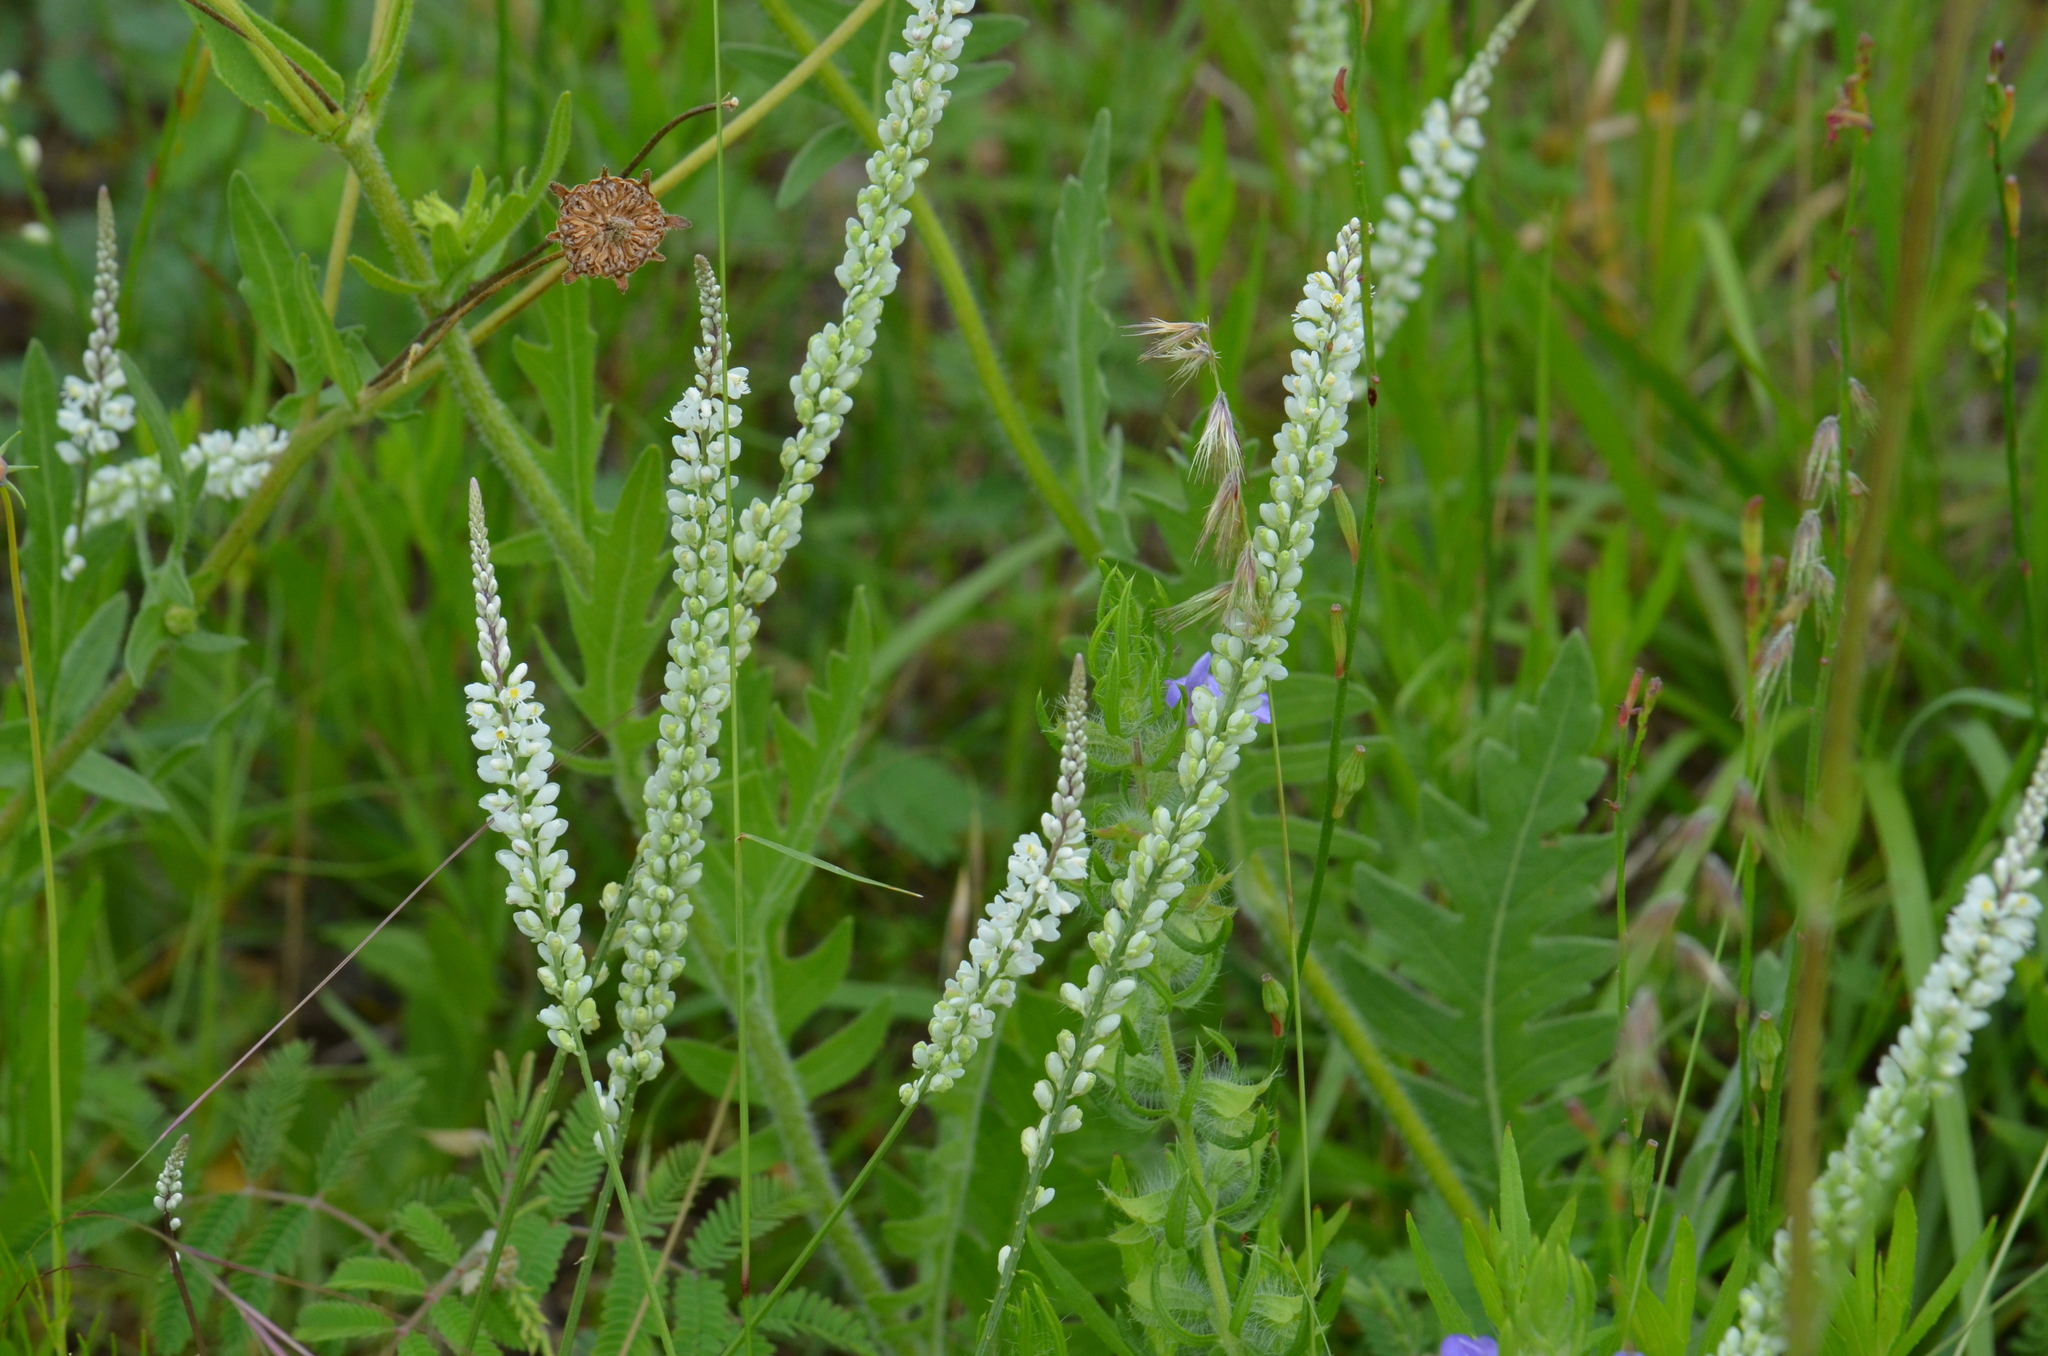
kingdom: Plantae
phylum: Tracheophyta
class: Magnoliopsida
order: Fabales
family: Polygalaceae
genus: Polygala
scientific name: Polygala alba
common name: White milkwort
